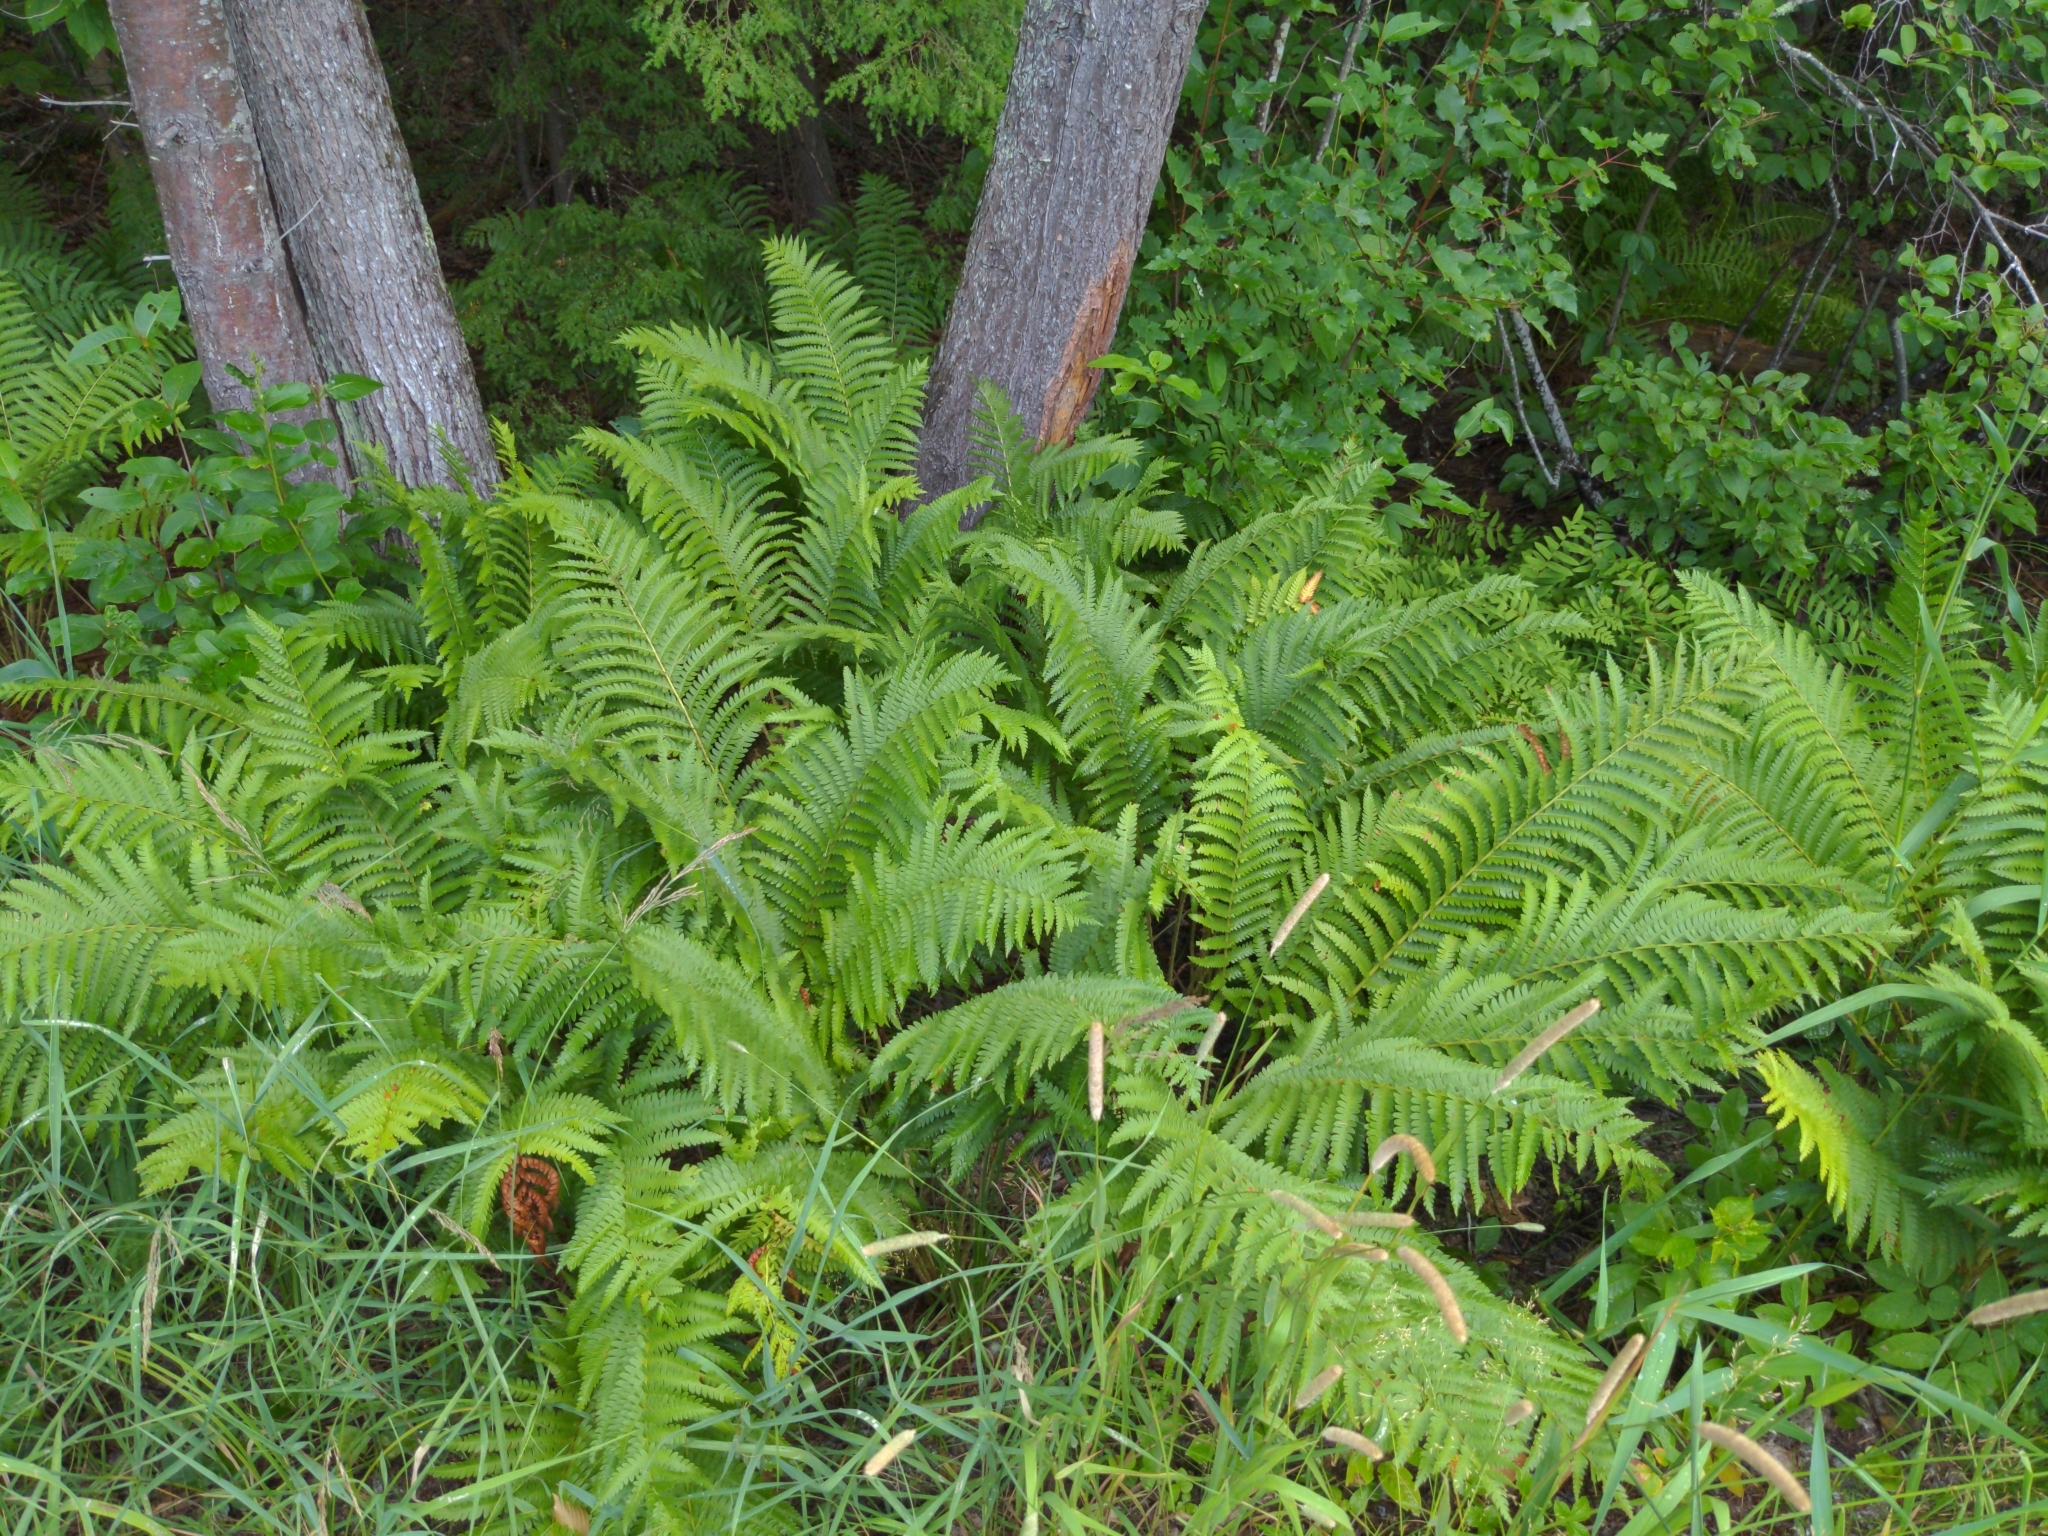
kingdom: Plantae
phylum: Tracheophyta
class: Polypodiopsida
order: Osmundales
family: Osmundaceae
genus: Osmundastrum
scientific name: Osmundastrum cinnamomeum
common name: Cinnamon fern
